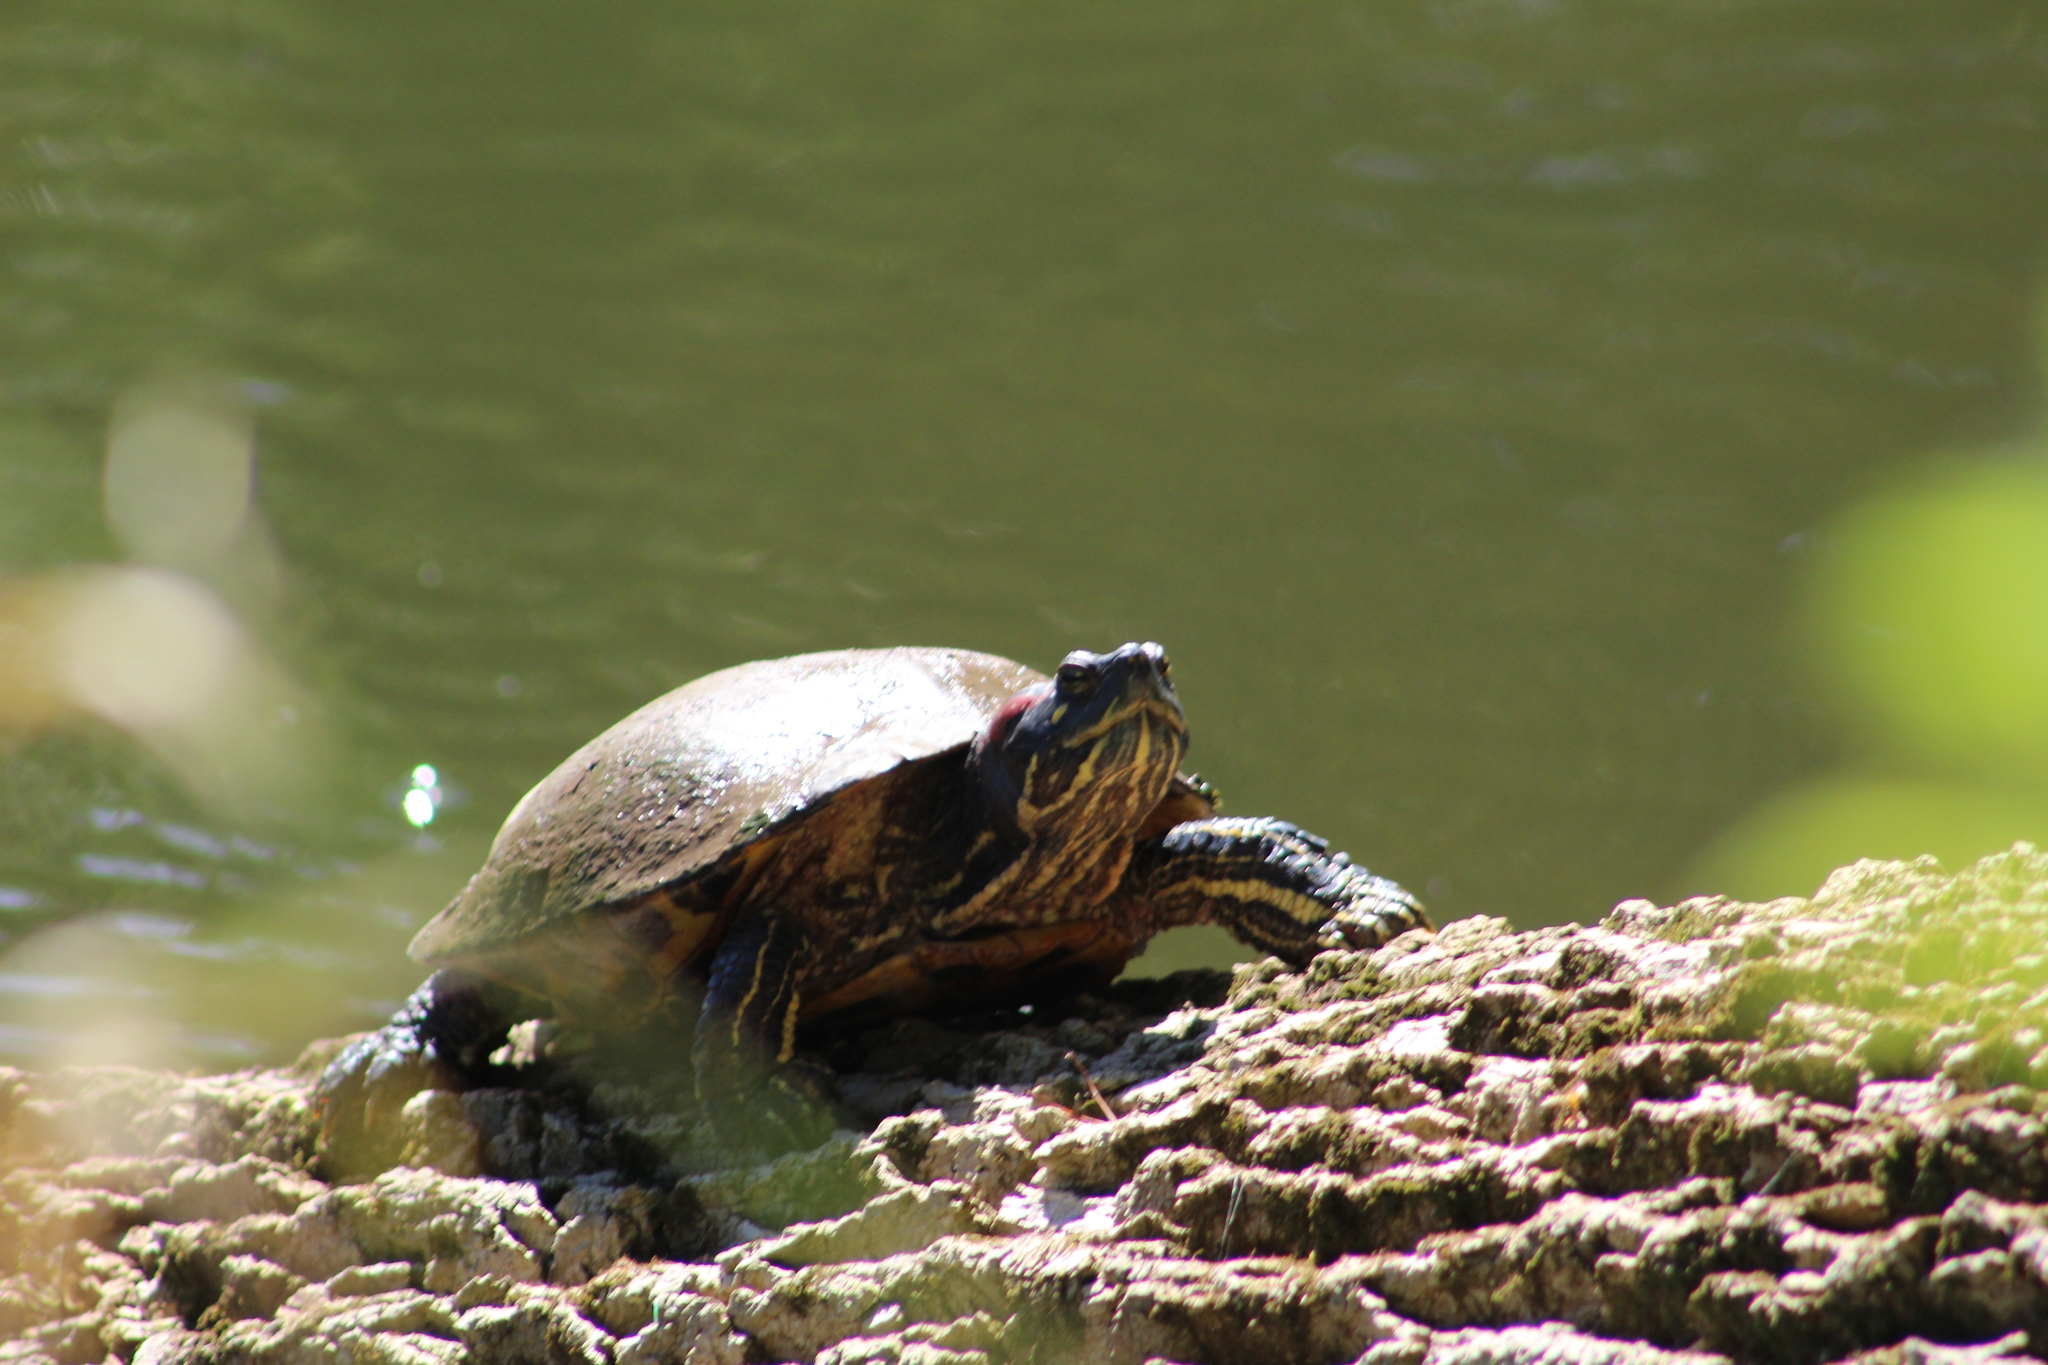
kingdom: Animalia
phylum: Chordata
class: Testudines
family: Emydidae
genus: Trachemys
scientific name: Trachemys scripta
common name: Slider
